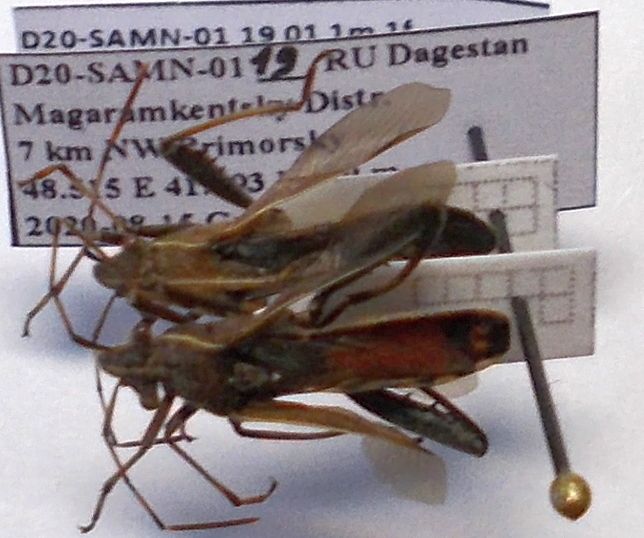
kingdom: Animalia
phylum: Arthropoda
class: Insecta
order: Hemiptera
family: Alydidae
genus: Camptopus
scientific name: Camptopus lateralis
